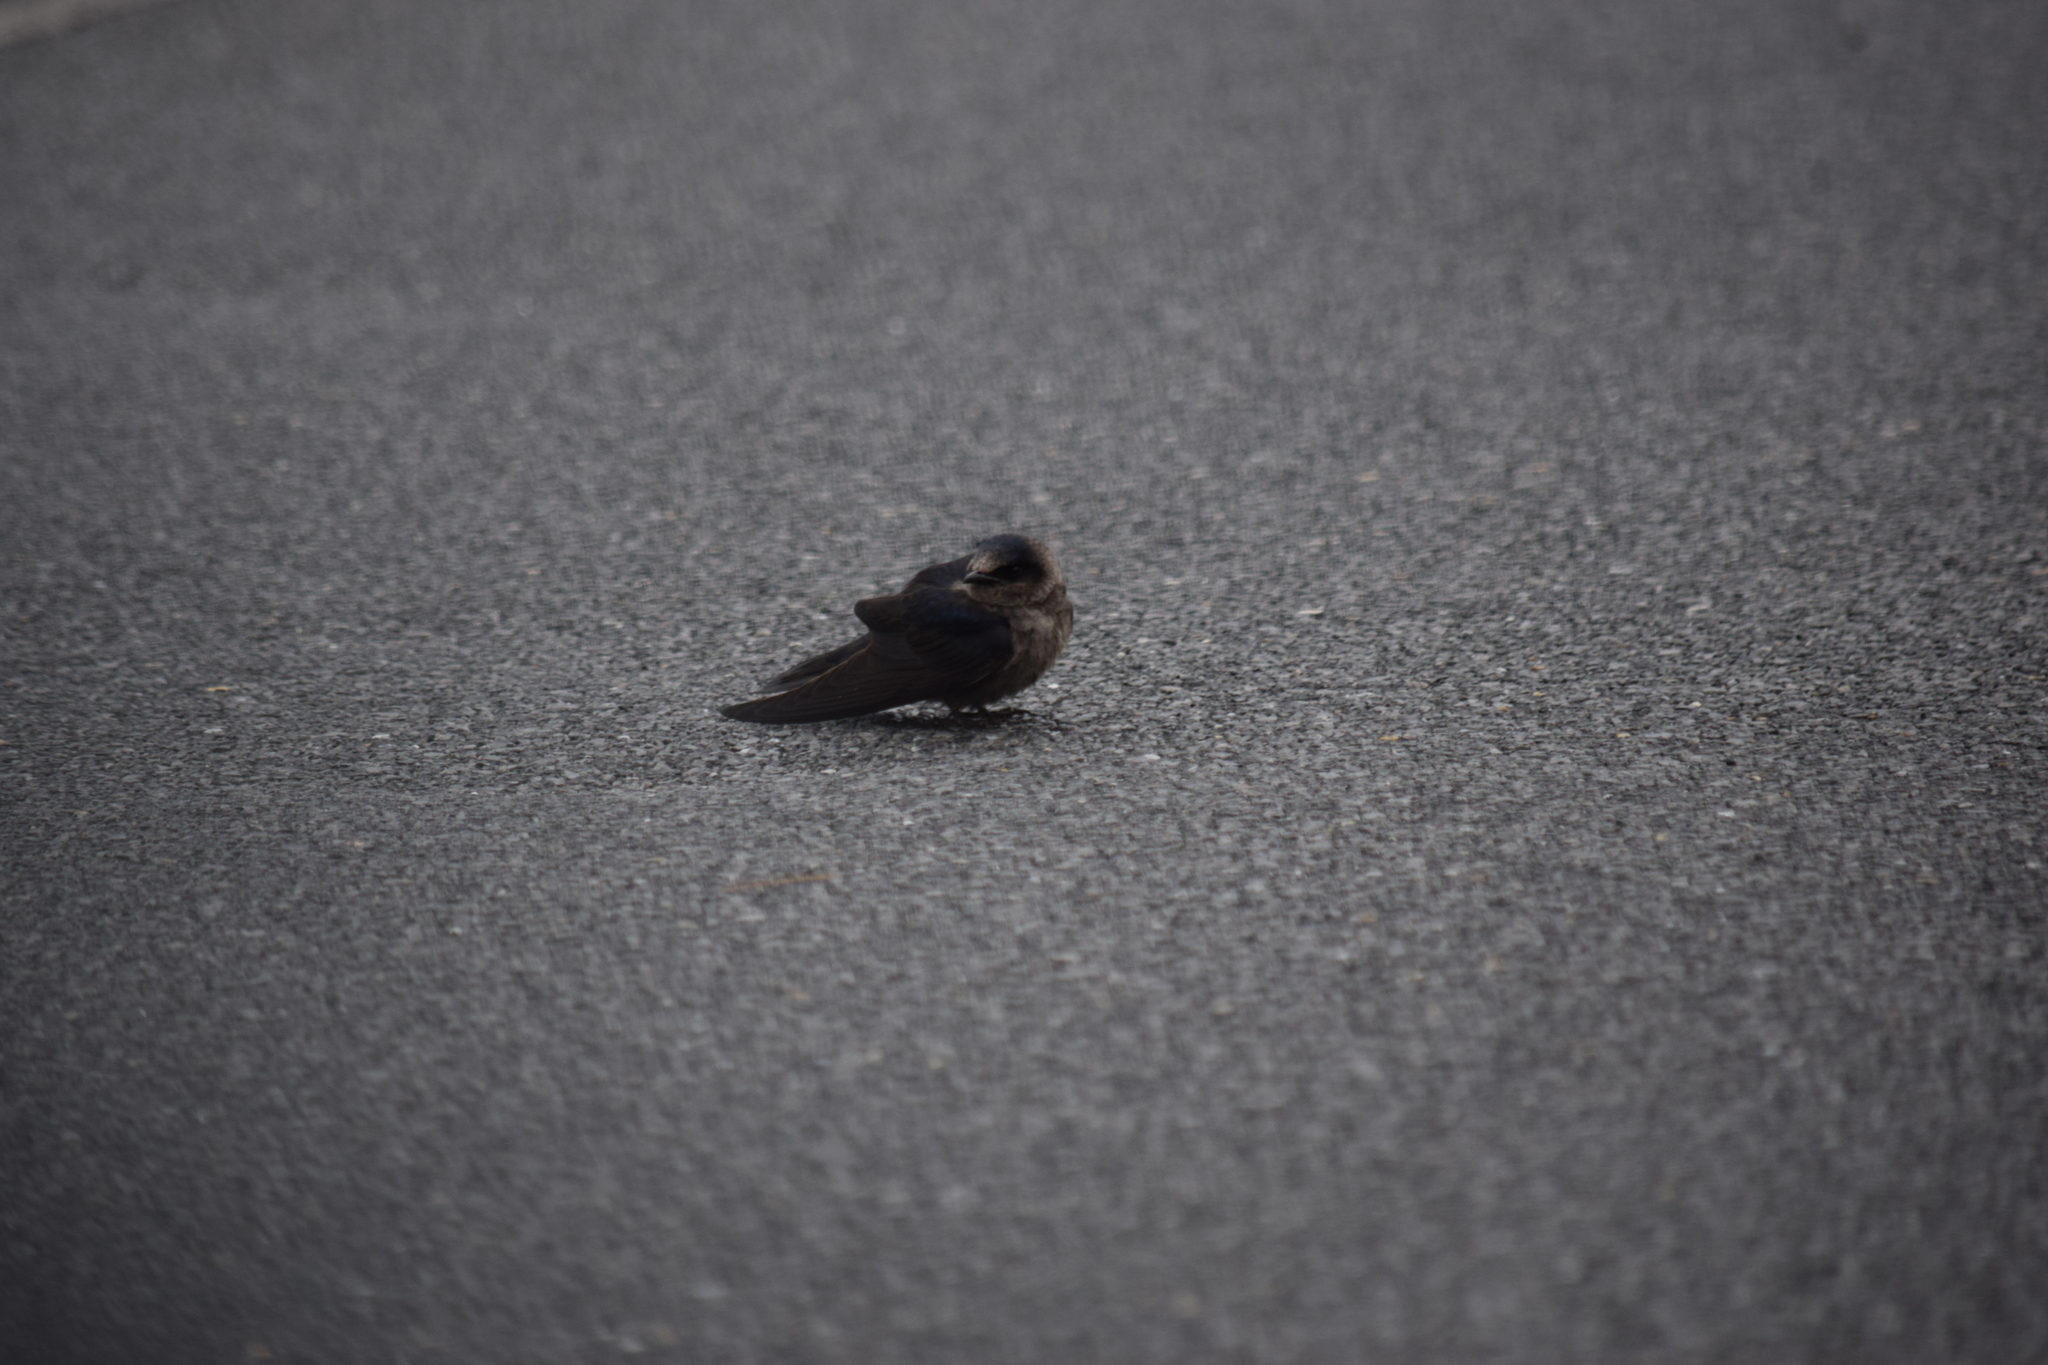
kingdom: Animalia
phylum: Chordata
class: Aves
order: Passeriformes
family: Hirundinidae
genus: Progne
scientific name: Progne subis
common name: Purple martin
